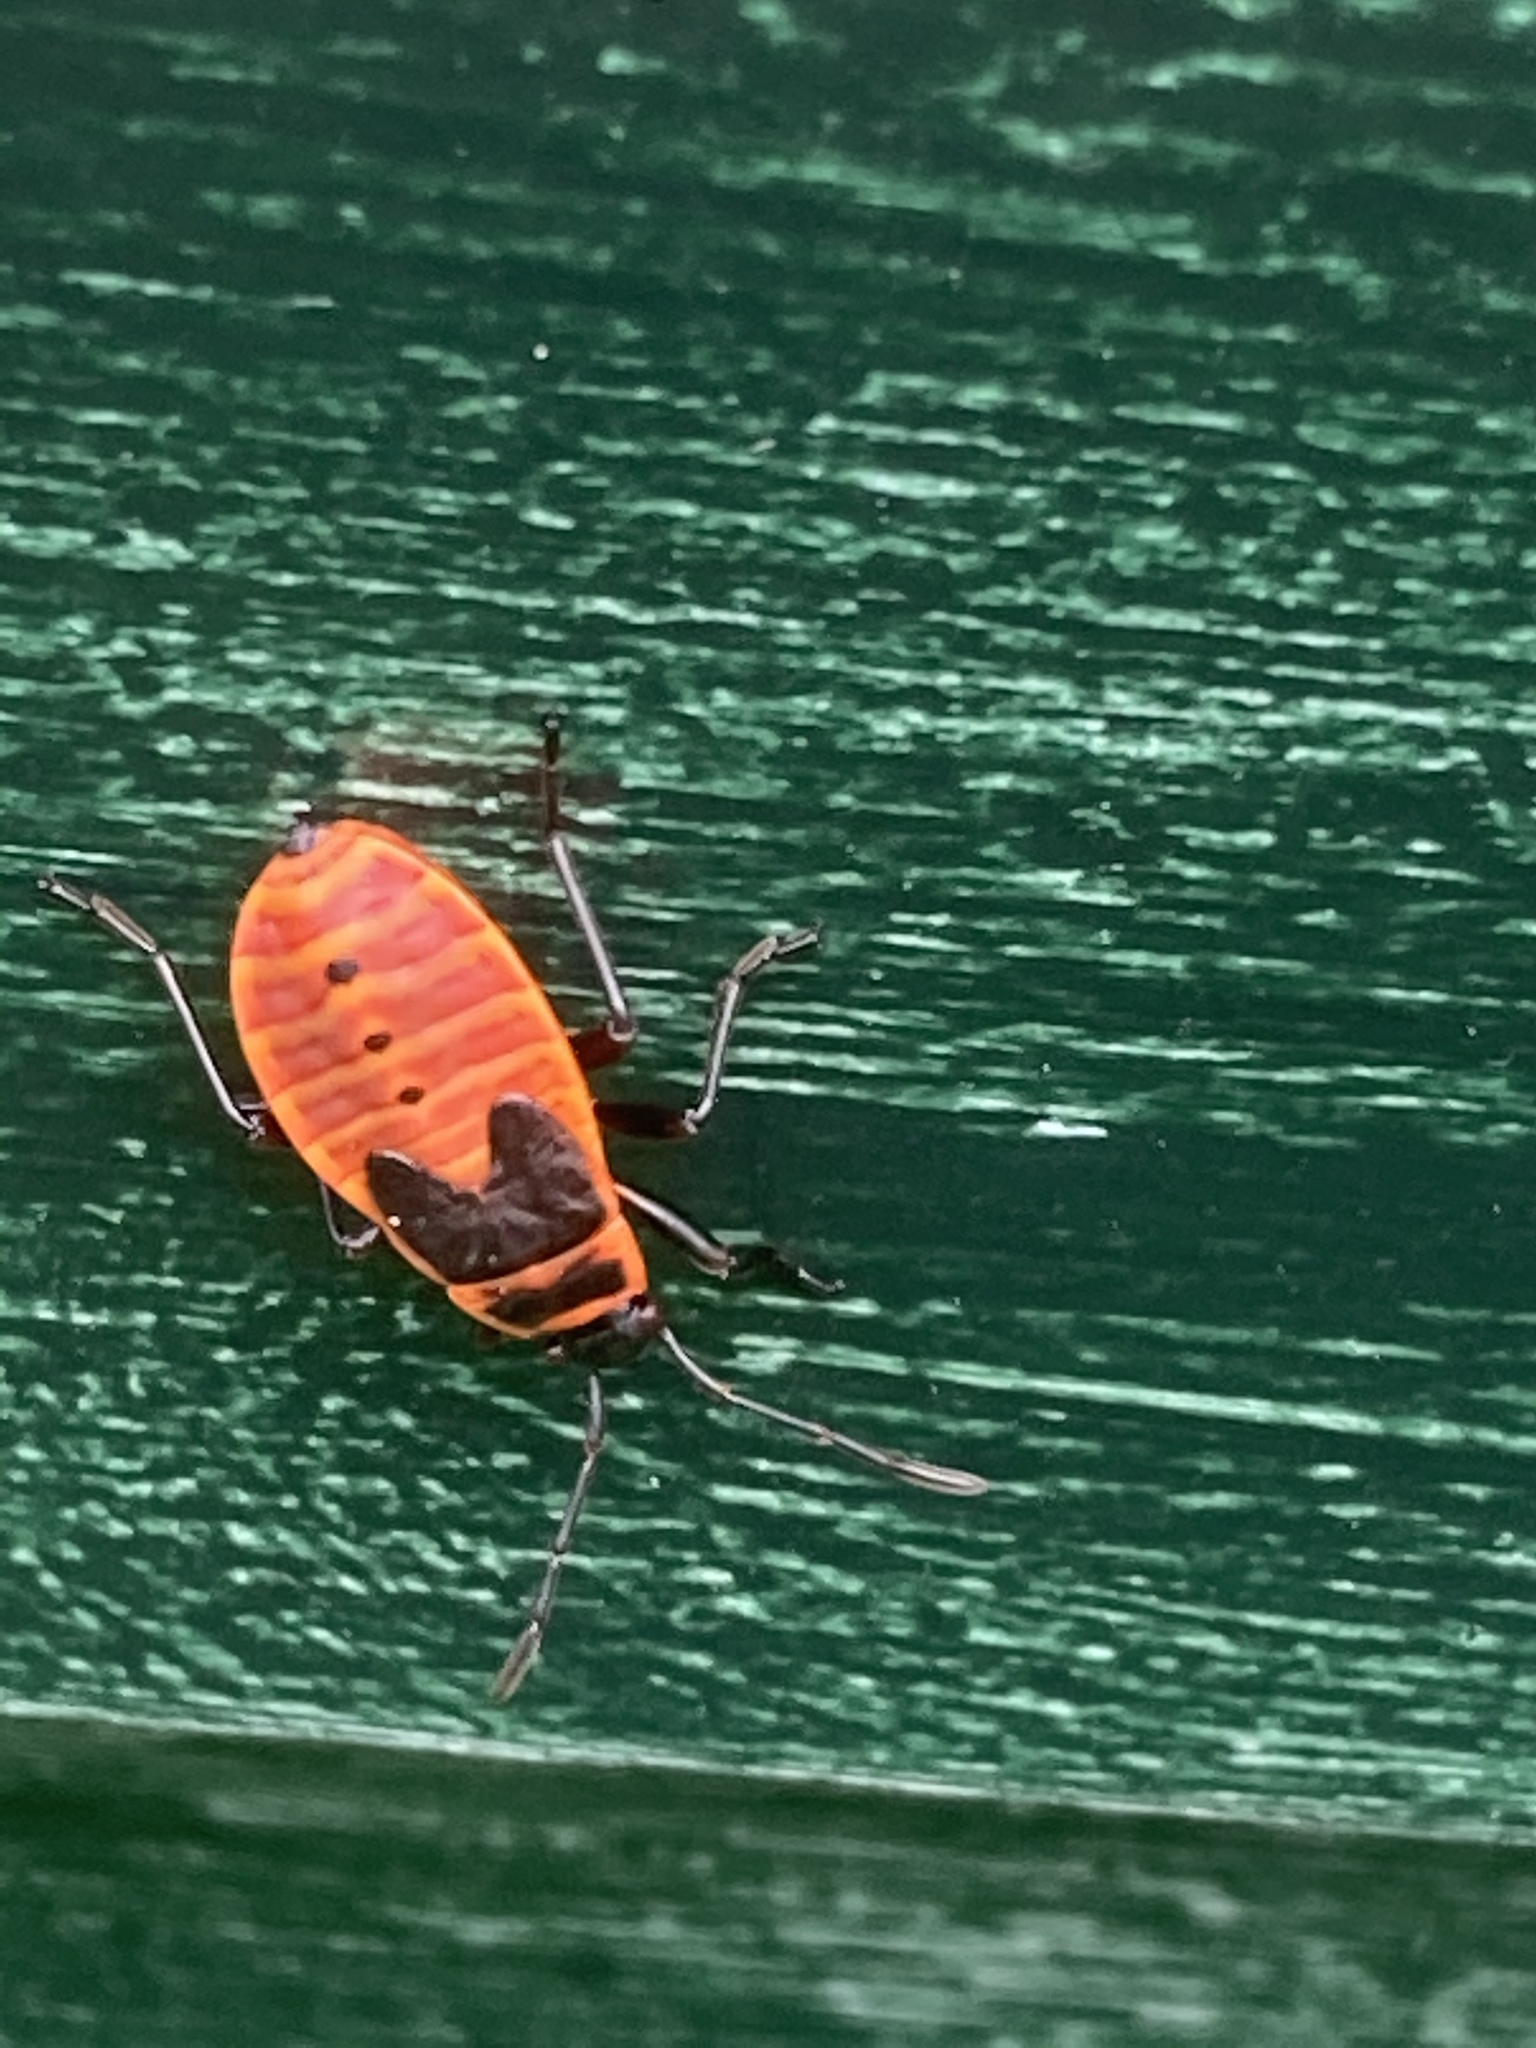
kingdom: Animalia
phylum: Arthropoda
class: Insecta
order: Hemiptera
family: Pyrrhocoridae
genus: Pyrrhocoris
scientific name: Pyrrhocoris apterus
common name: Firebug
